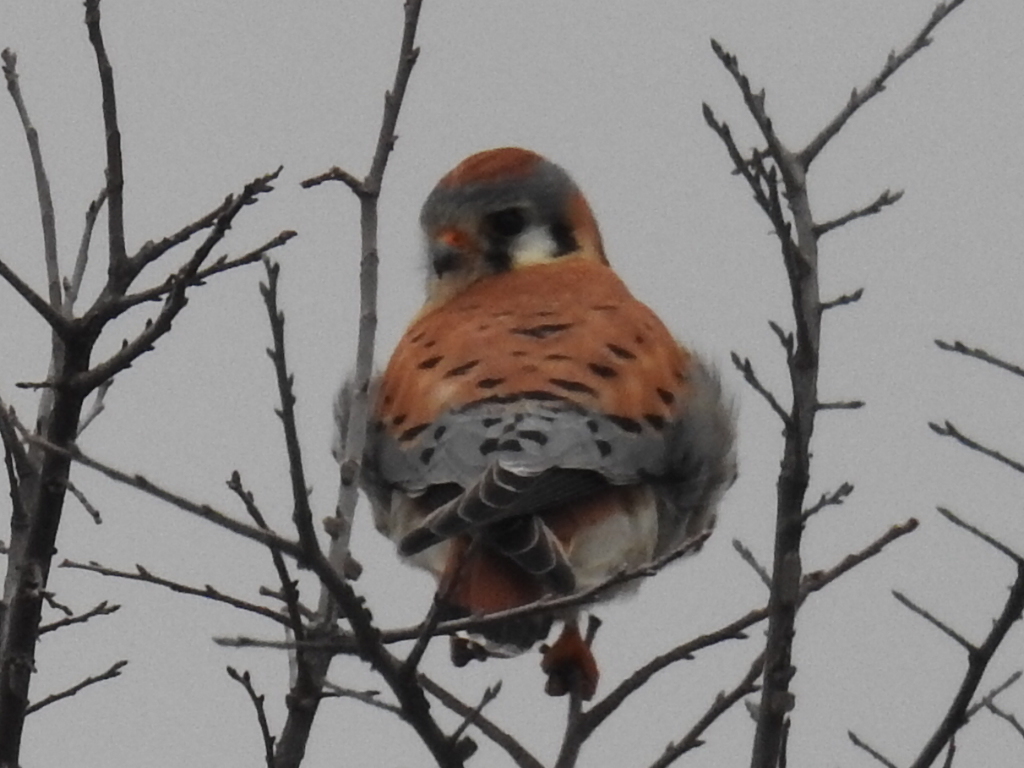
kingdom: Animalia
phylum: Chordata
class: Aves
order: Falconiformes
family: Falconidae
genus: Falco
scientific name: Falco sparverius
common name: American kestrel
